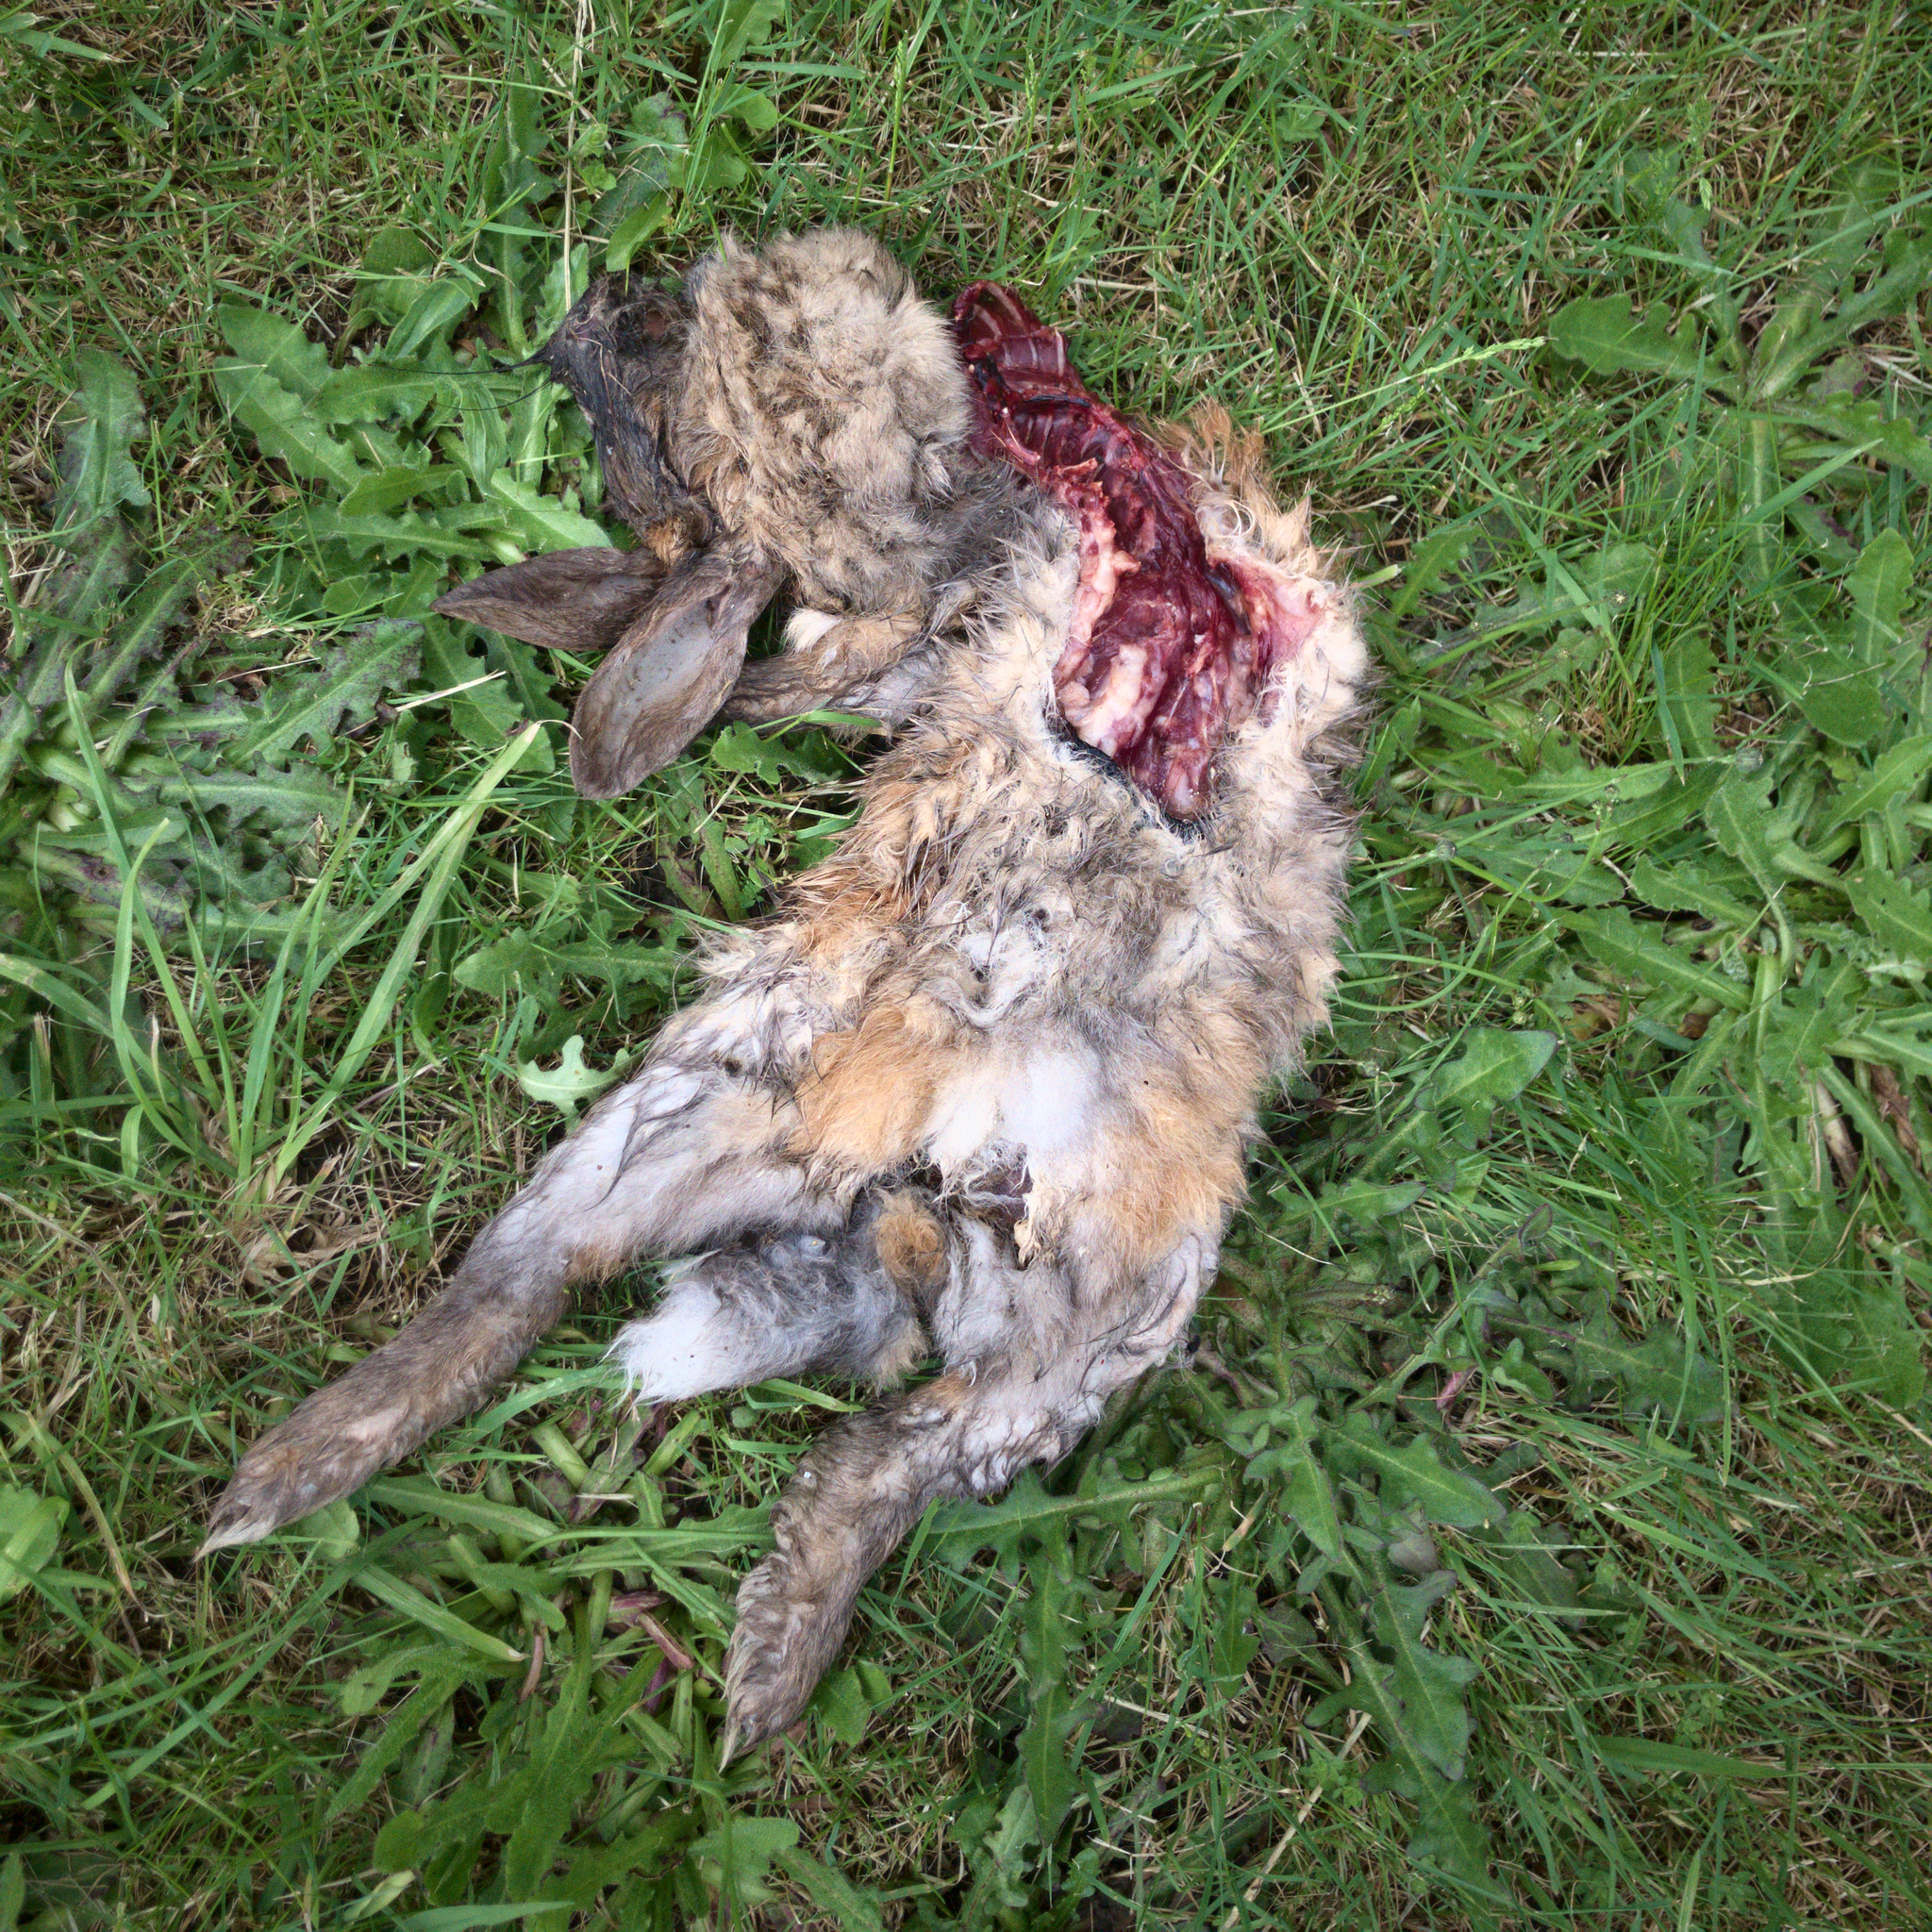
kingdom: Animalia
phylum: Chordata
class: Mammalia
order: Lagomorpha
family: Leporidae
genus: Oryctolagus
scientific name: Oryctolagus cuniculus
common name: European rabbit
